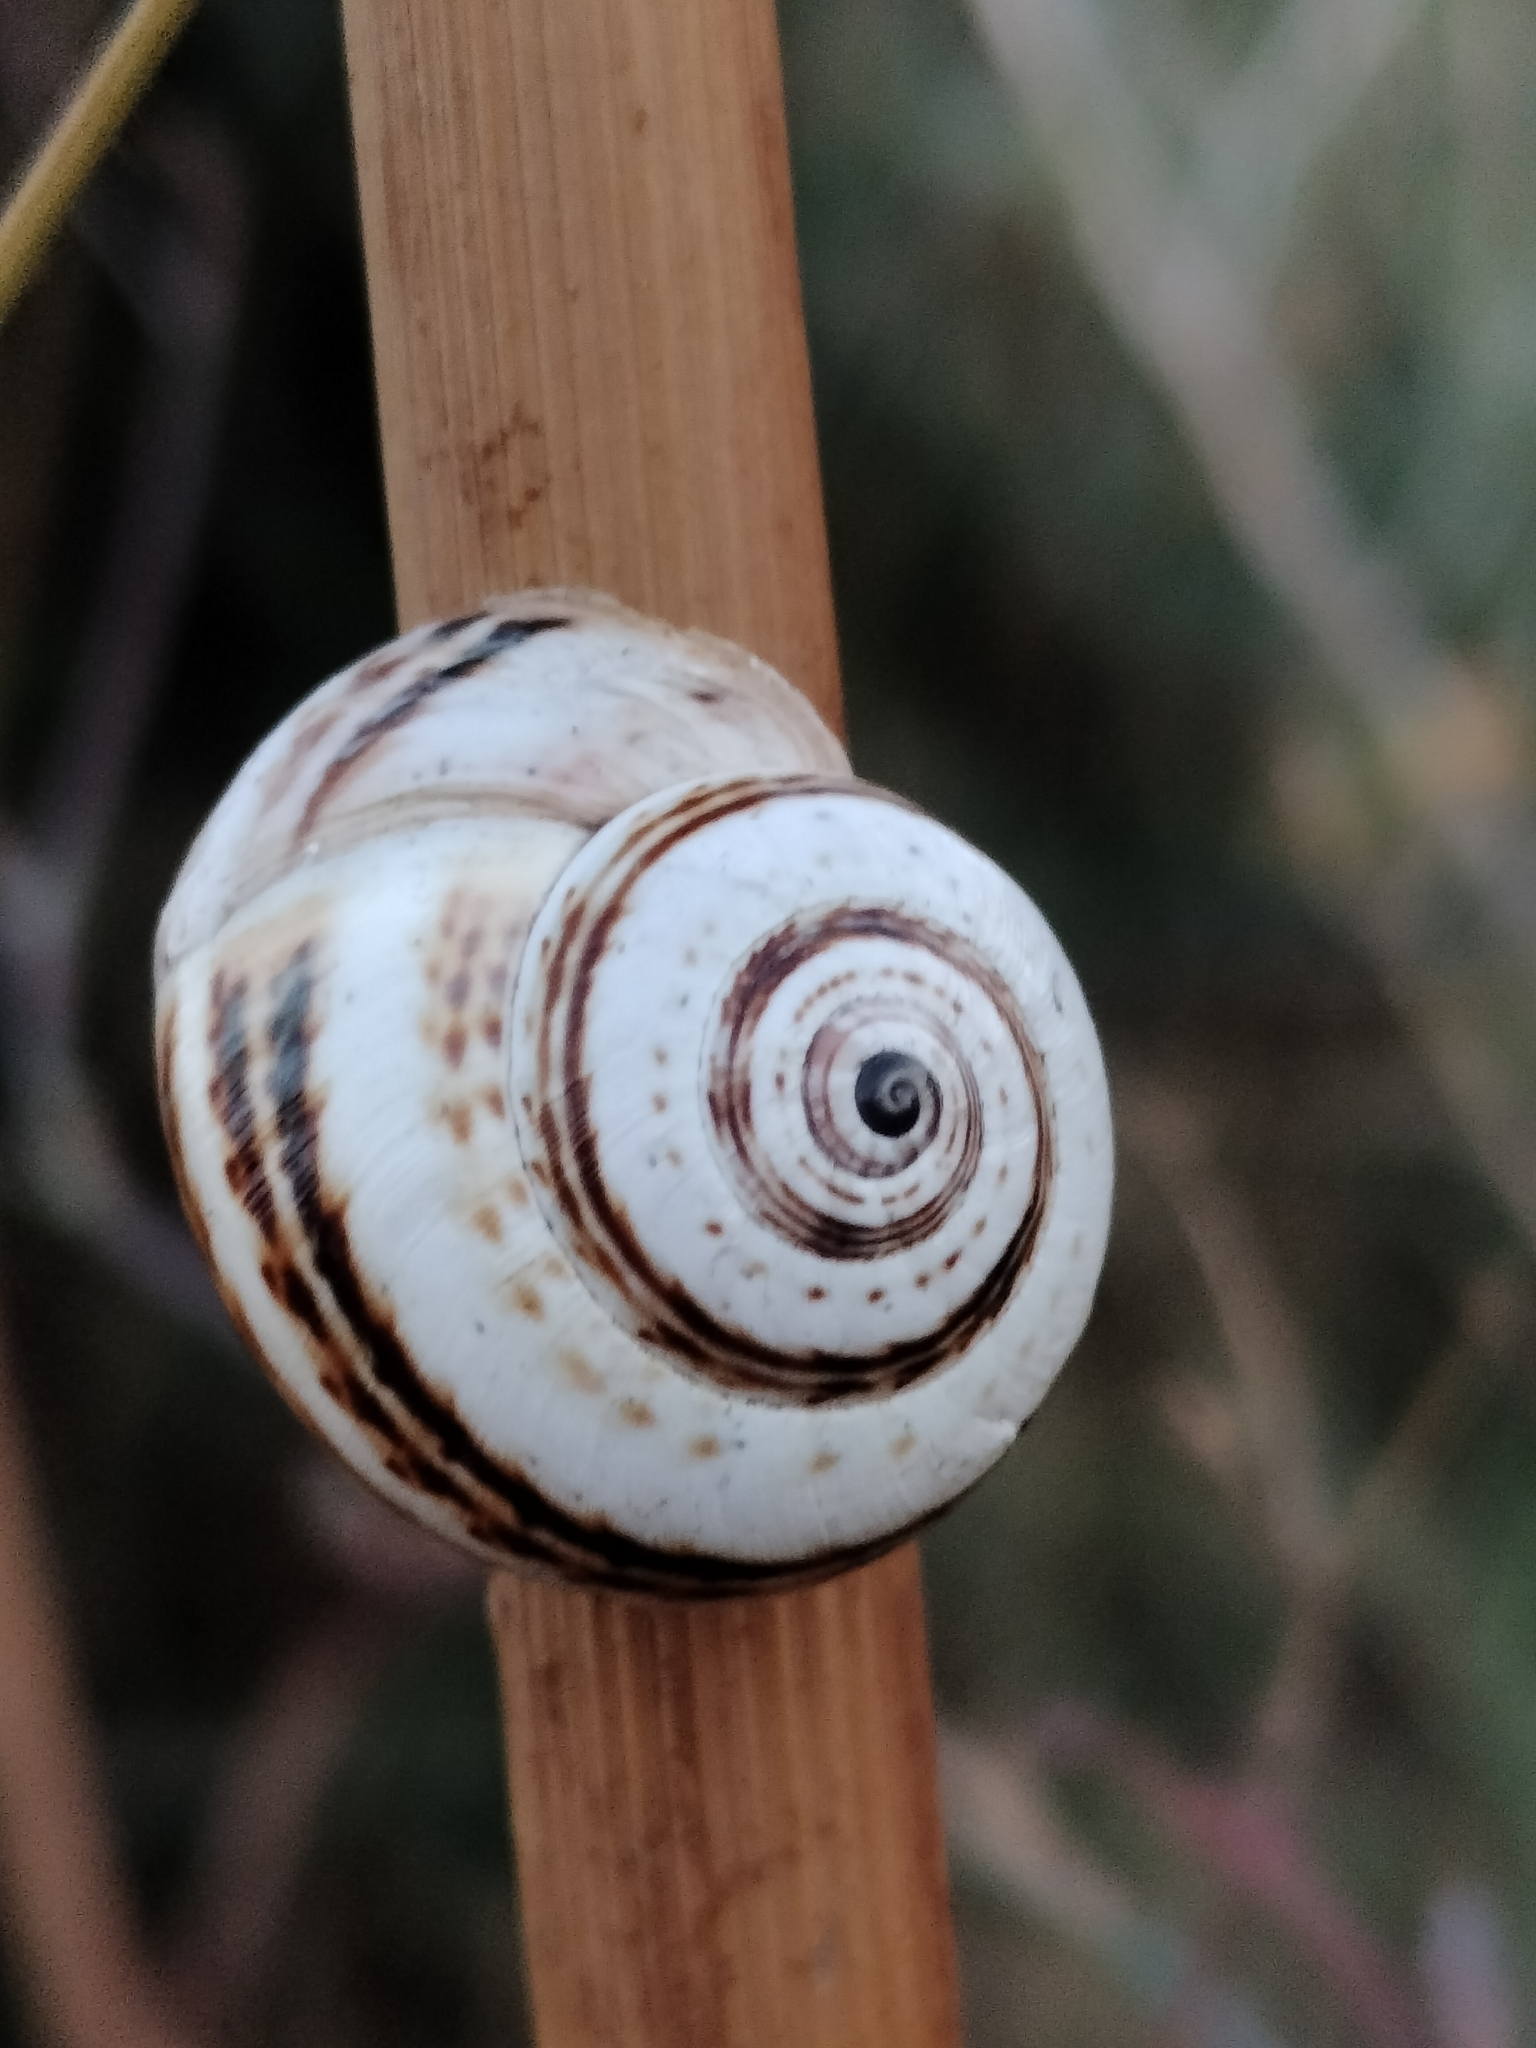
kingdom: Animalia
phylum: Mollusca
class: Gastropoda
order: Stylommatophora
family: Helicidae
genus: Theba
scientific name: Theba pisana
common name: White snail
